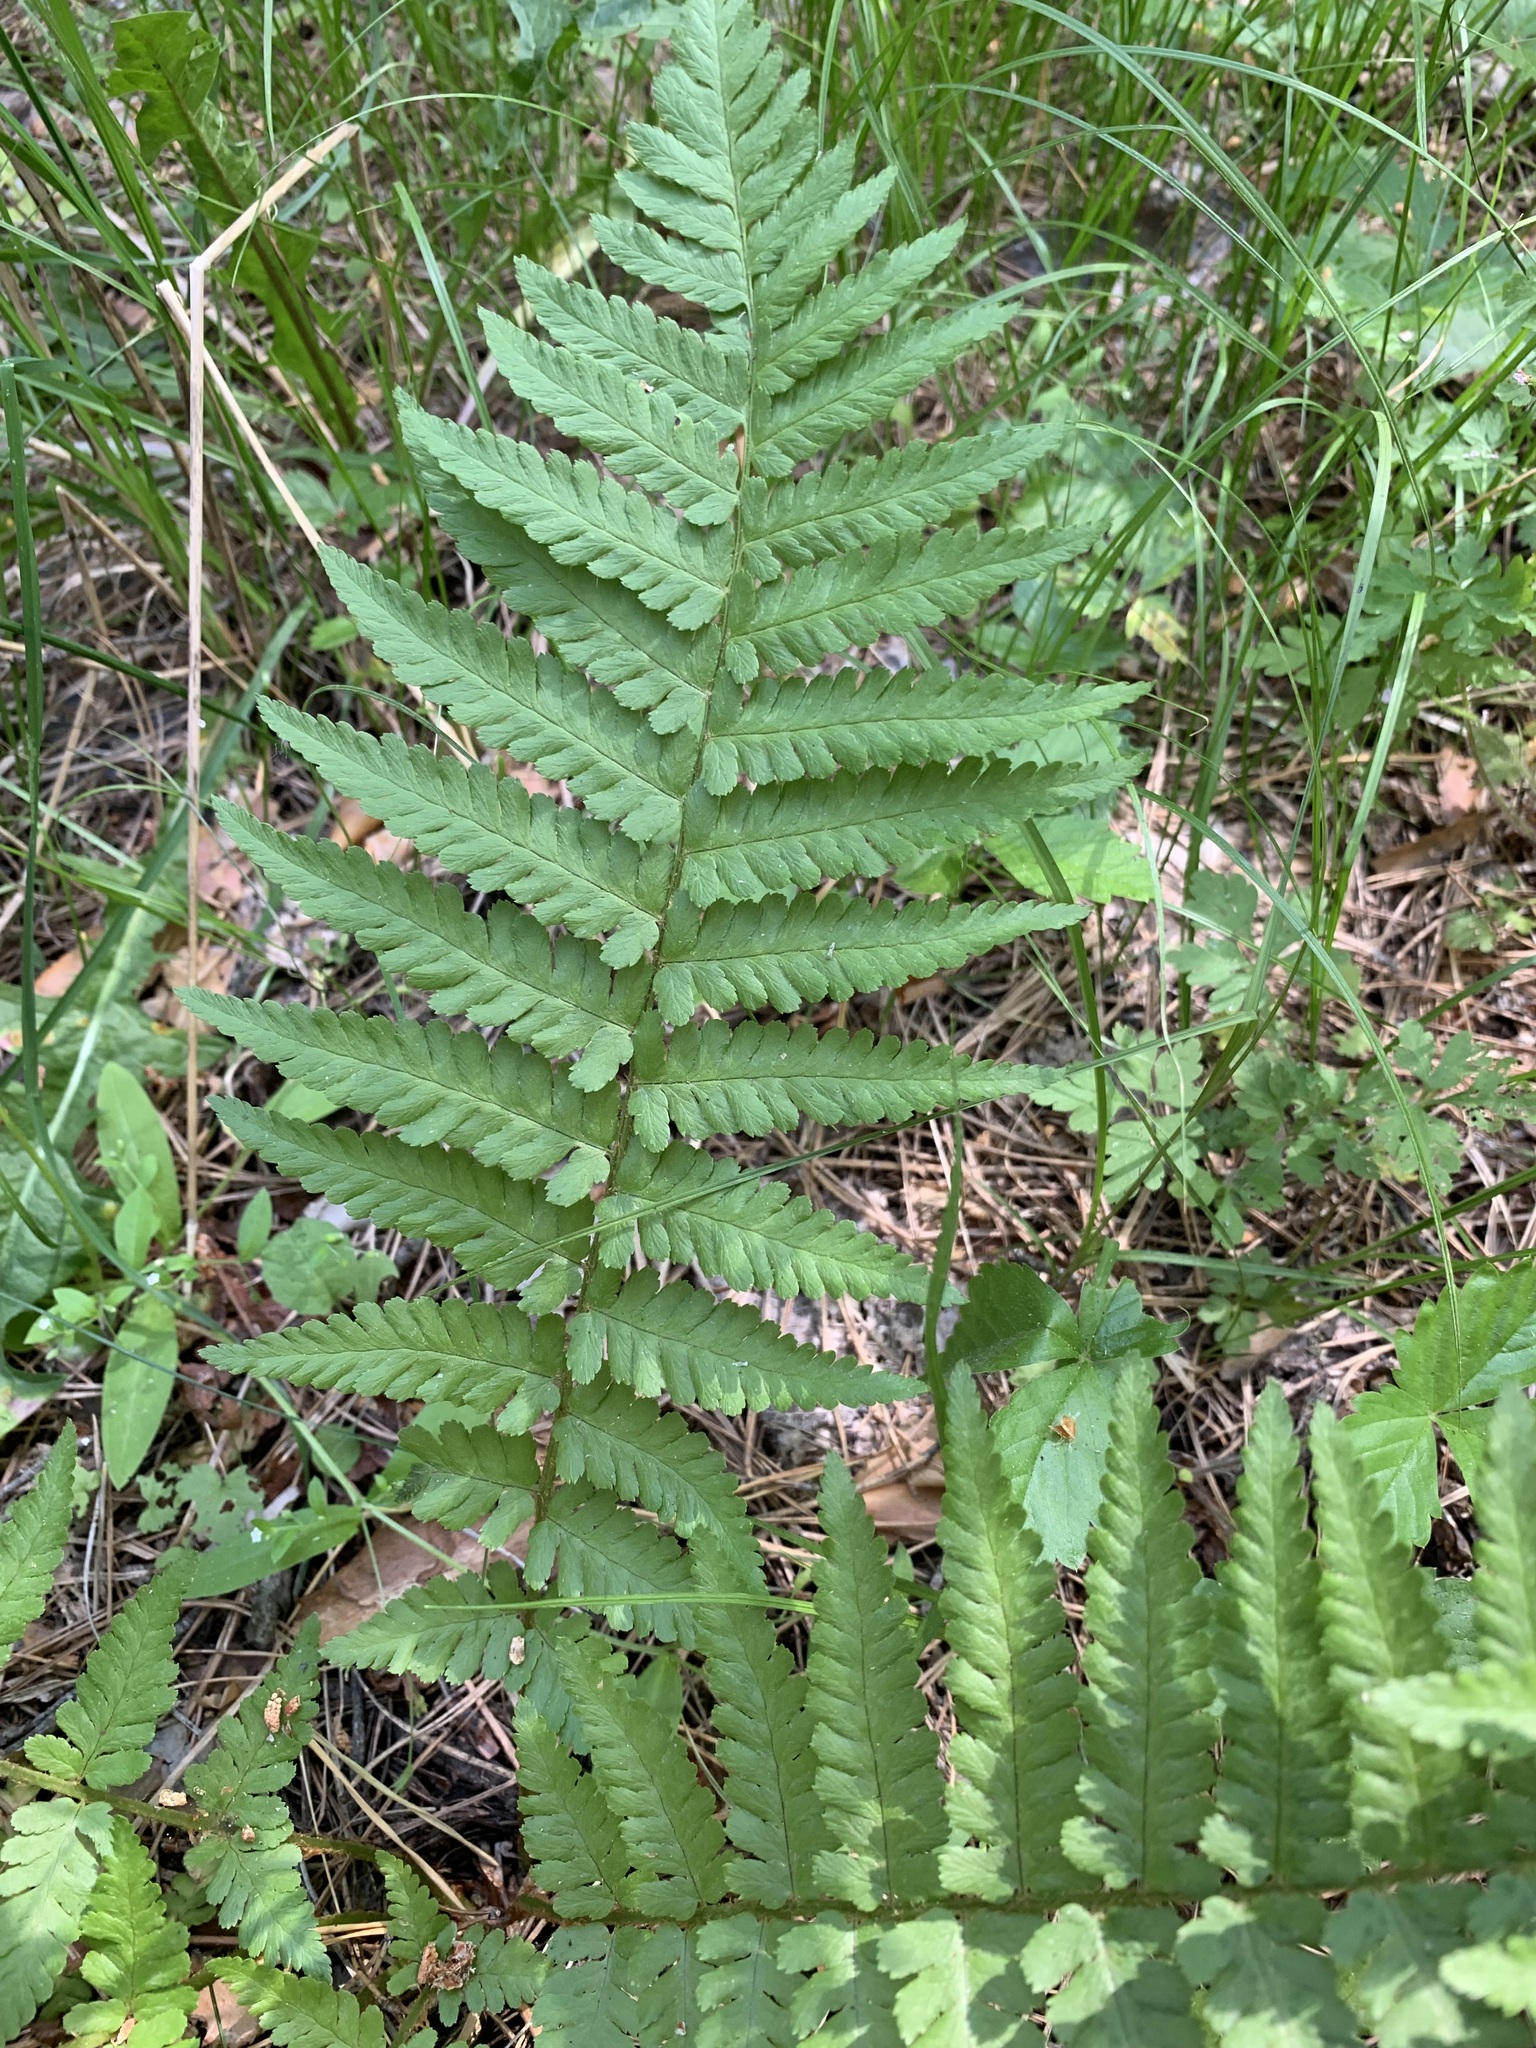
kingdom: Plantae
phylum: Tracheophyta
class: Polypodiopsida
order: Polypodiales
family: Dryopteridaceae
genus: Dryopteris
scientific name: Dryopteris filix-mas
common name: Male fern
